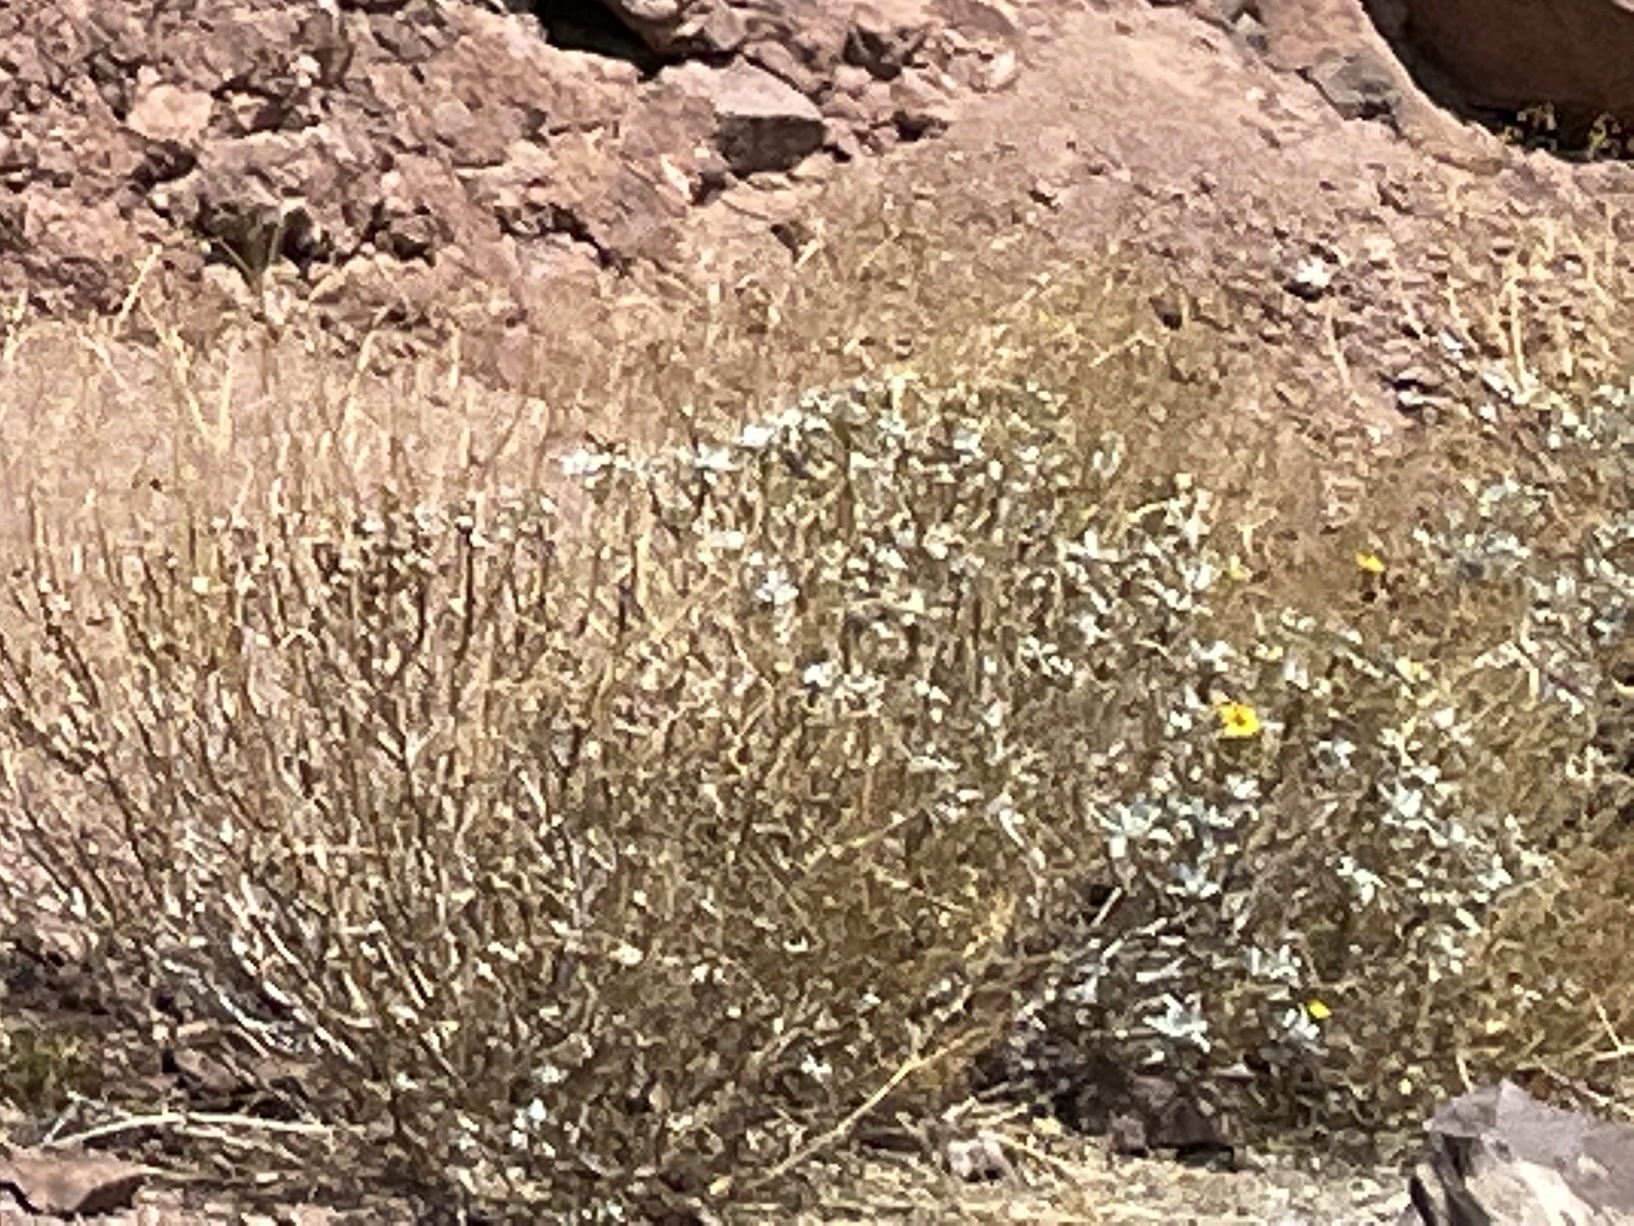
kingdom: Plantae
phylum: Tracheophyta
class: Magnoliopsida
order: Asterales
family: Asteraceae
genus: Encelia
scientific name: Encelia farinosa
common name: Brittlebush
